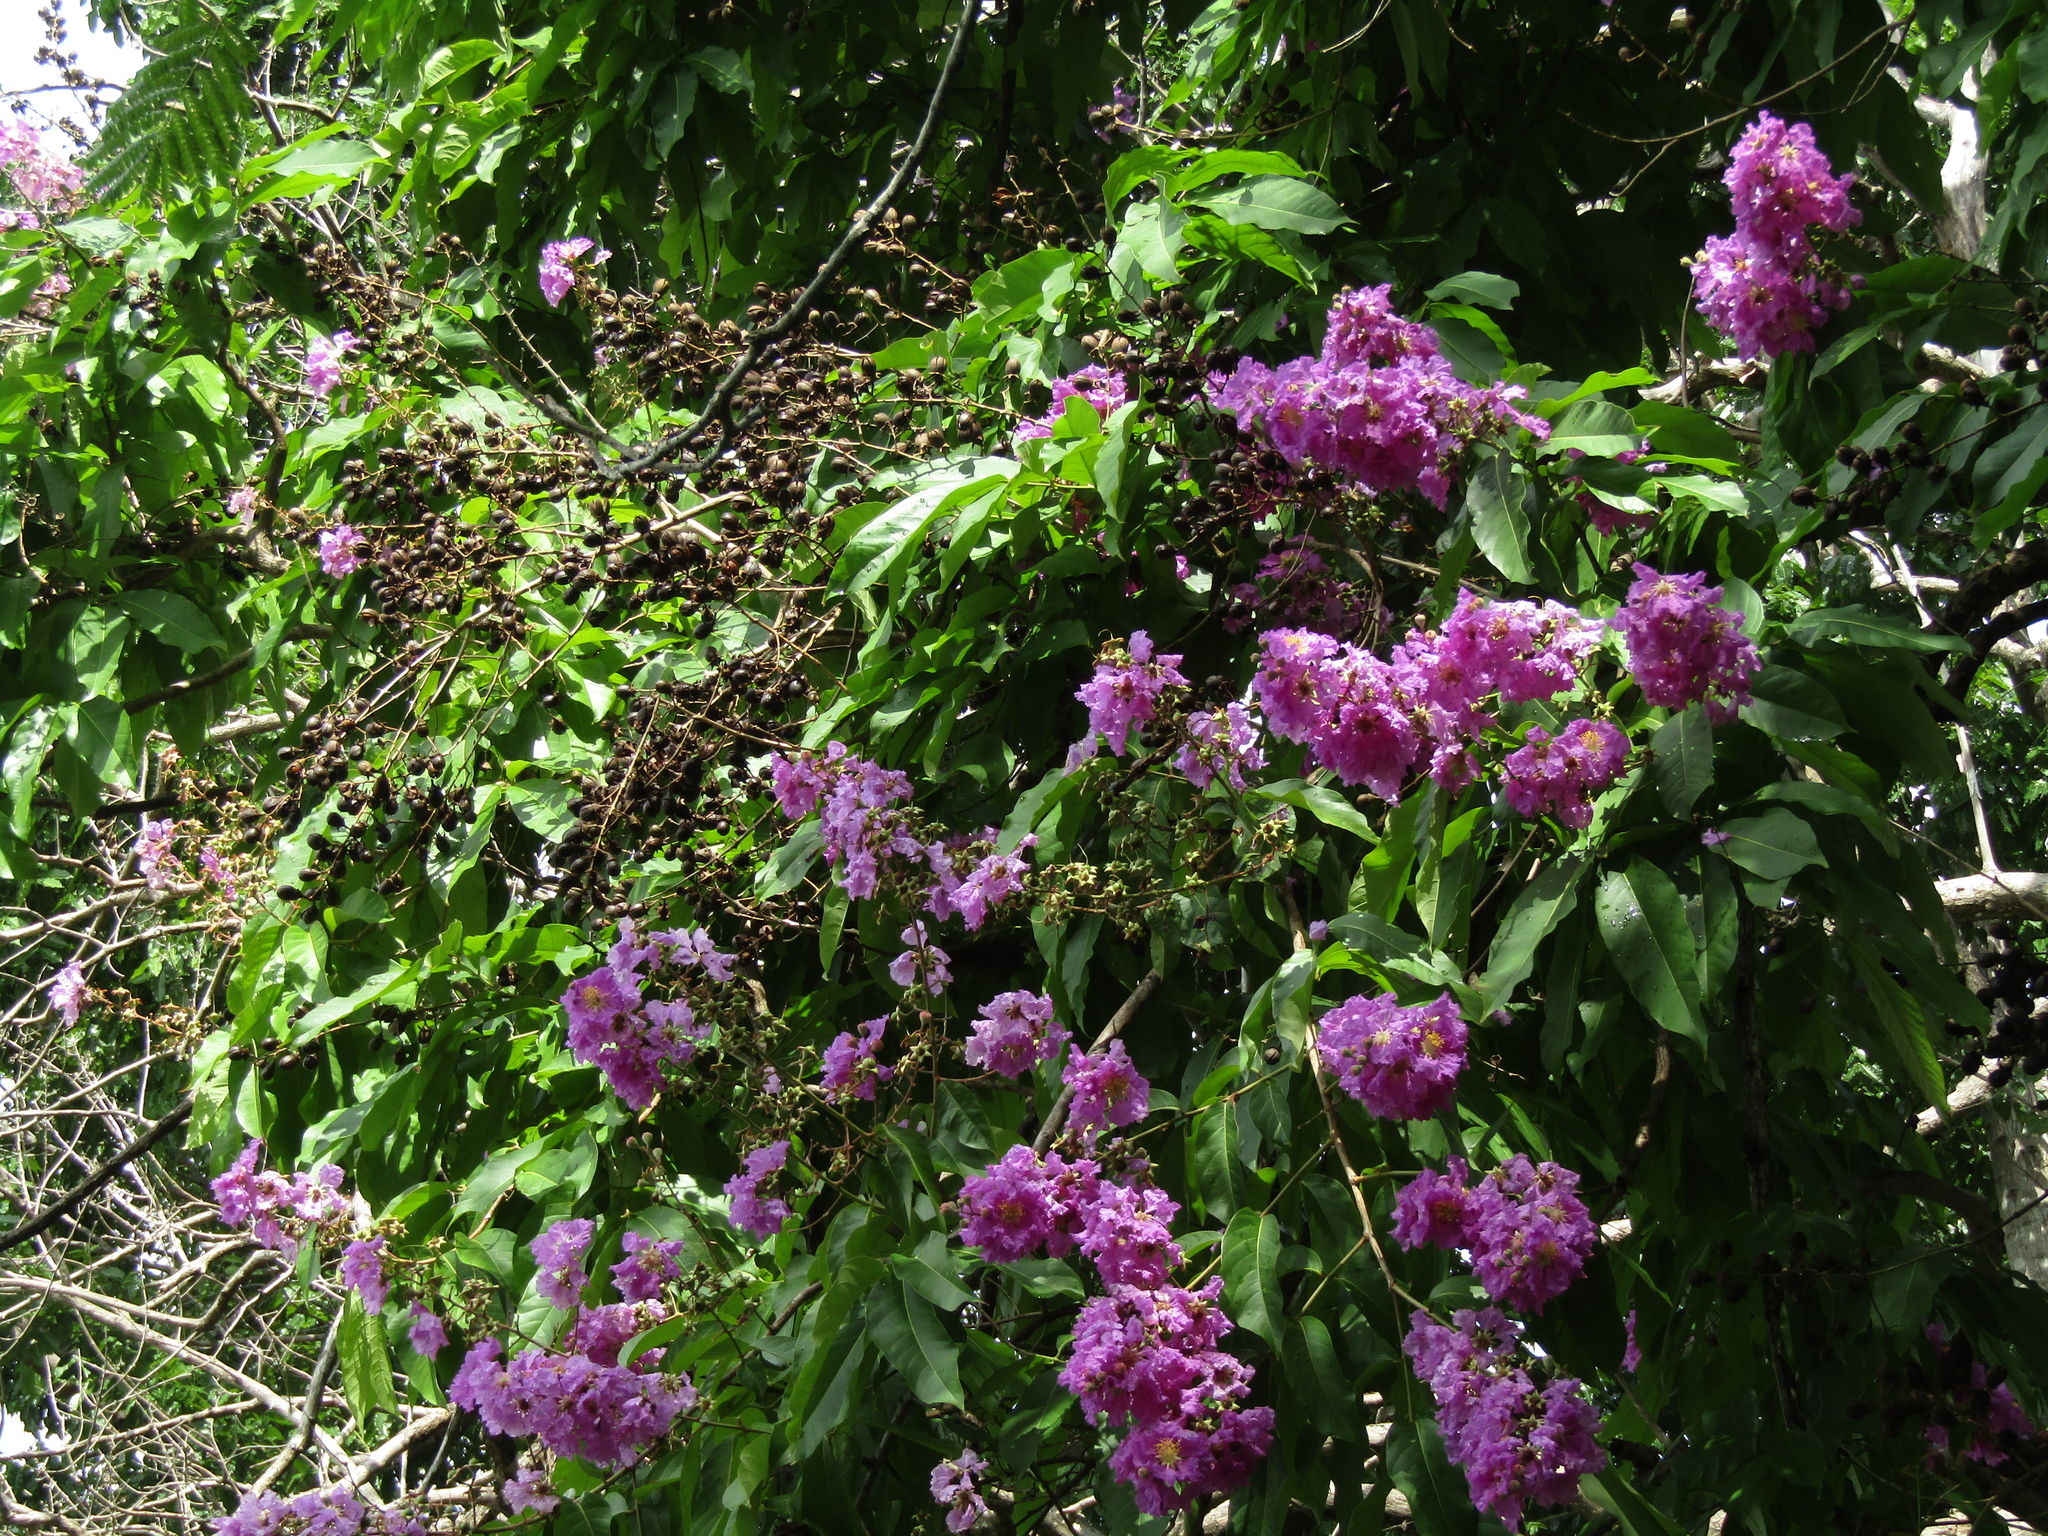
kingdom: Plantae
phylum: Tracheophyta
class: Magnoliopsida
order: Myrtales
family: Lythraceae
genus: Lagerstroemia
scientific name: Lagerstroemia speciosa
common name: Queen's crape-myrtle
